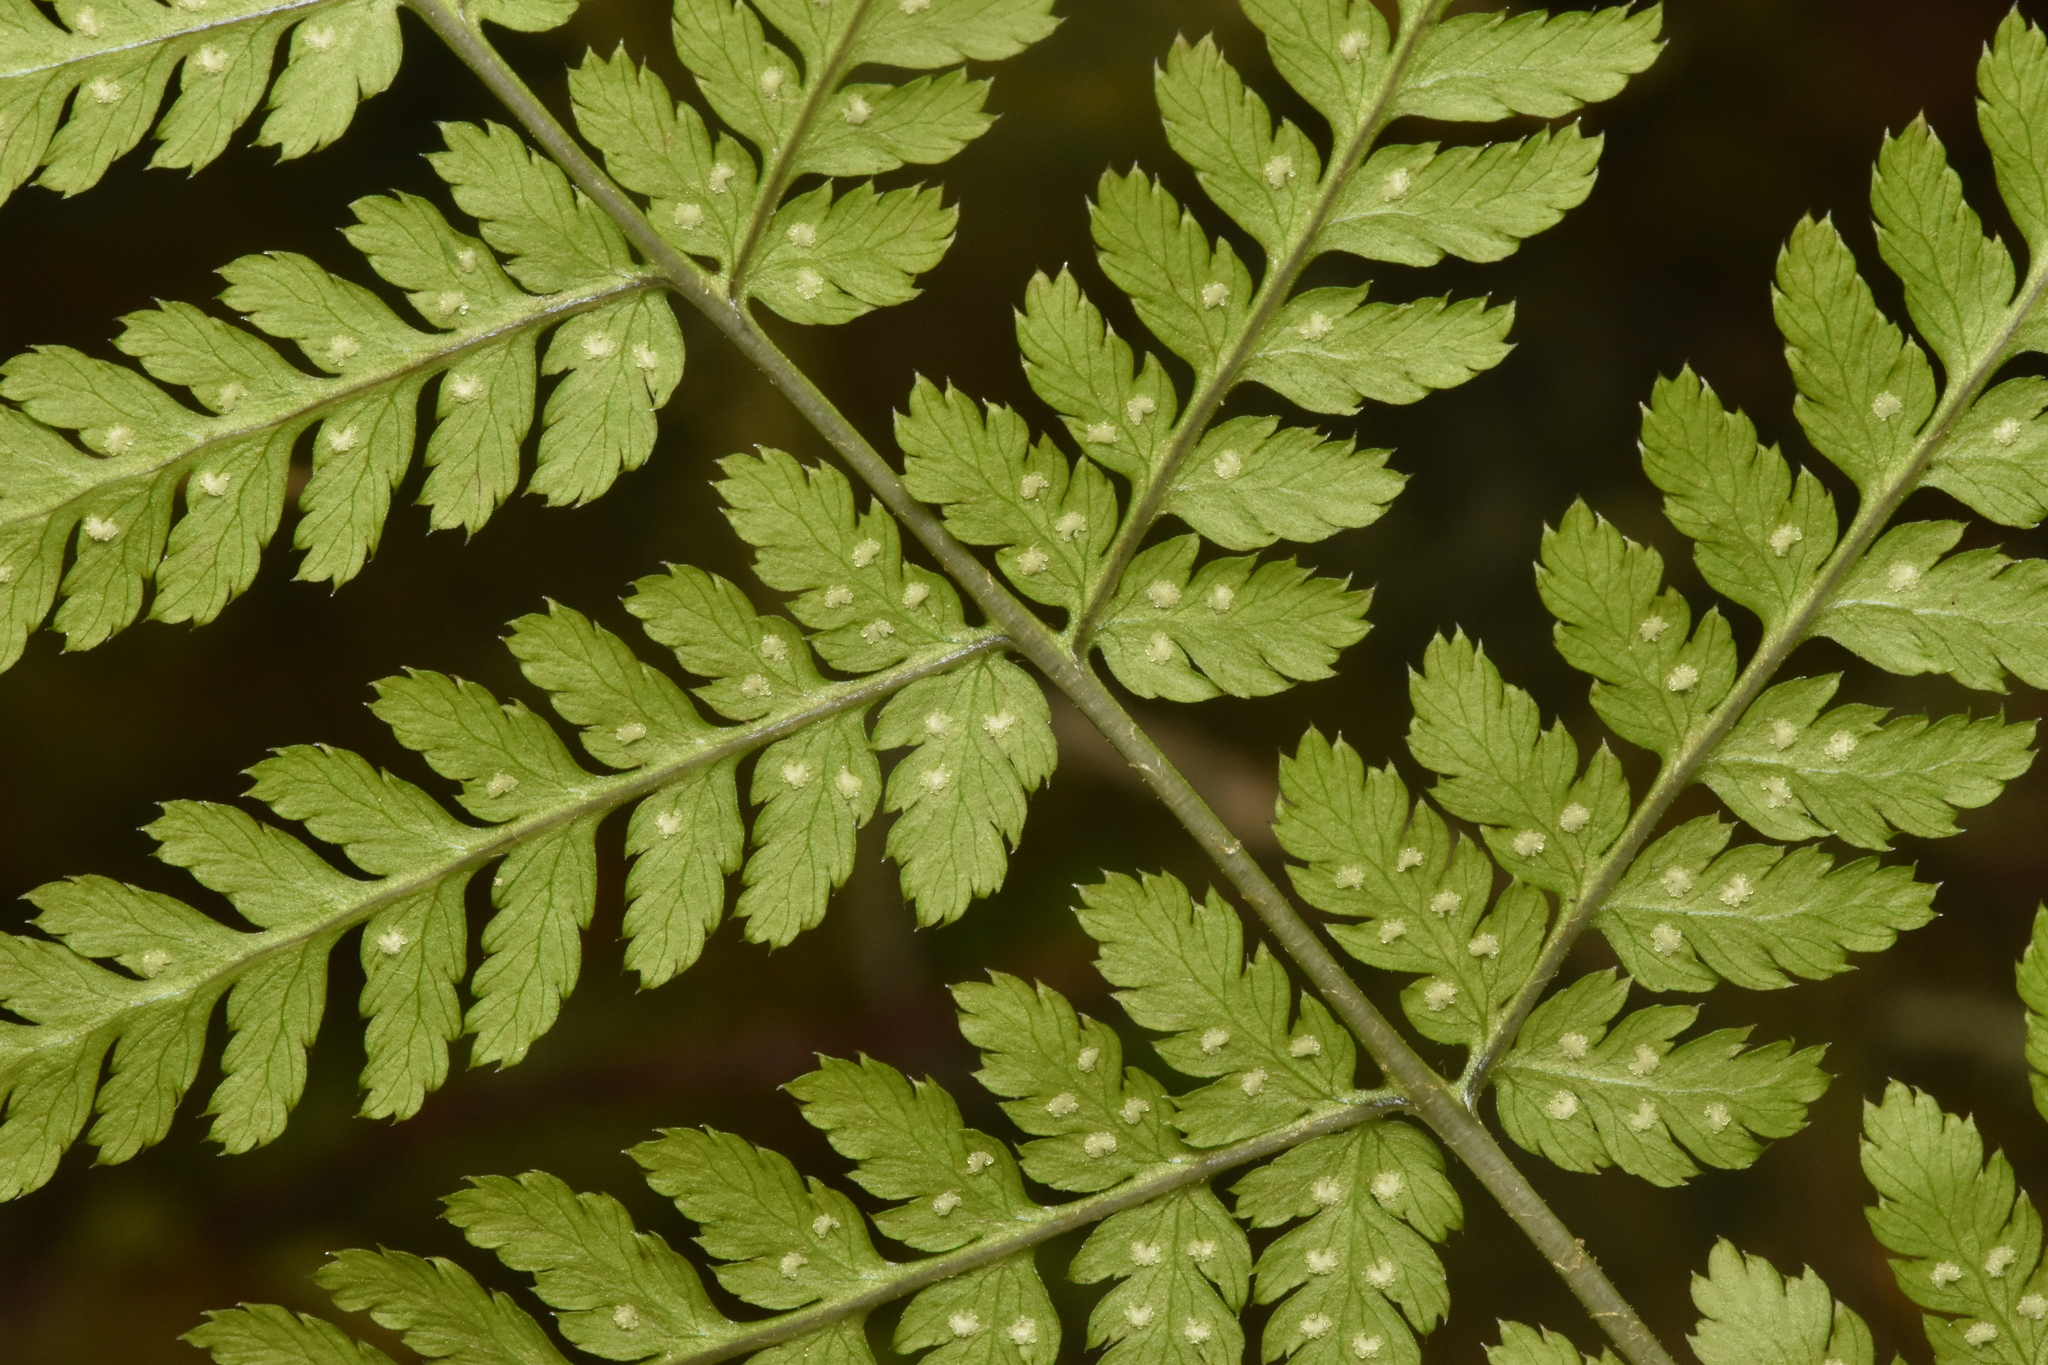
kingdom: Plantae
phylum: Tracheophyta
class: Polypodiopsida
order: Polypodiales
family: Dryopteridaceae
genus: Dryopteris
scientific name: Dryopteris expansa
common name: Northern buckler fern
